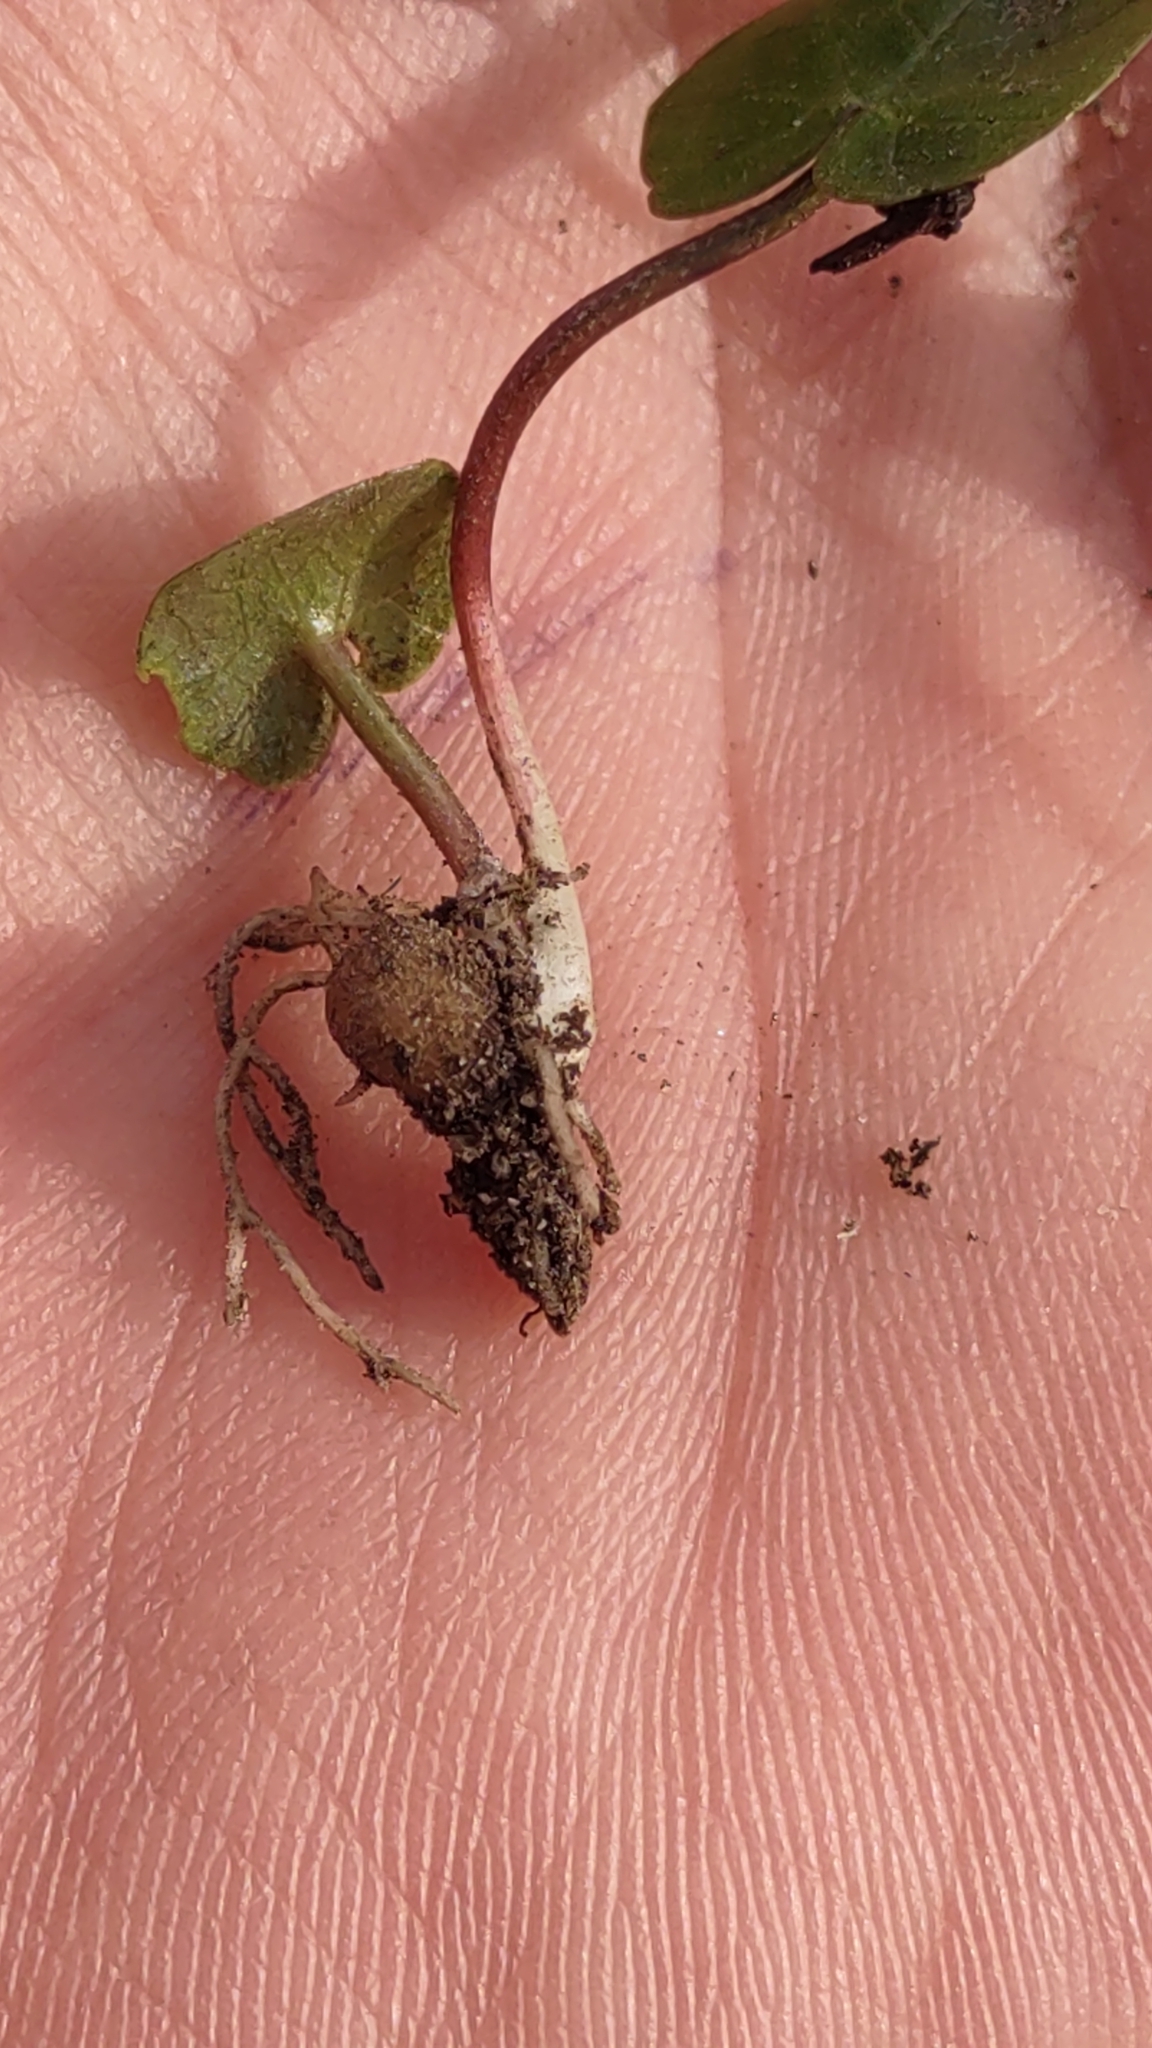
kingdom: Plantae
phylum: Tracheophyta
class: Magnoliopsida
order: Ranunculales
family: Ranunculaceae
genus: Ficaria
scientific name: Ficaria verna
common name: Lesser celandine
